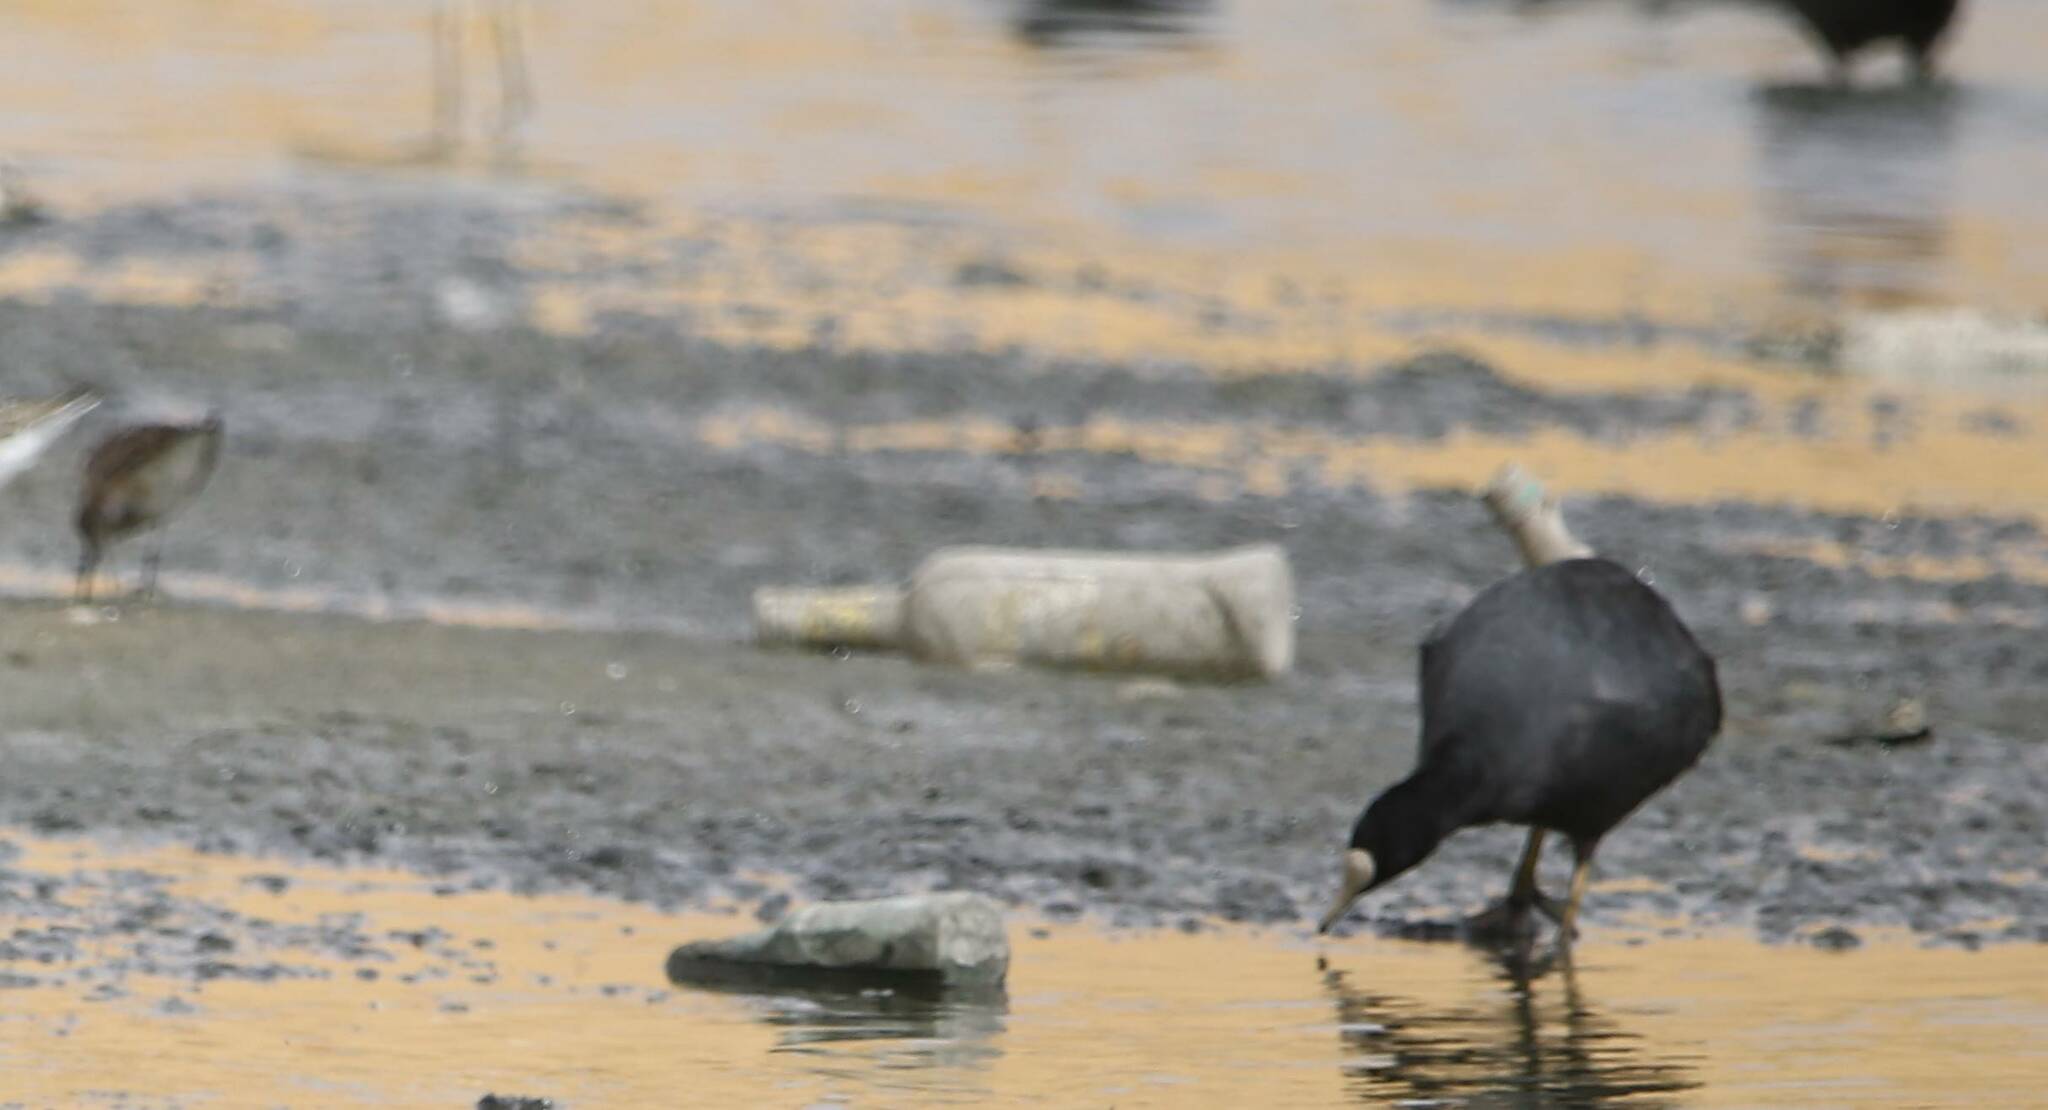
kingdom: Animalia
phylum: Chordata
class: Aves
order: Gruiformes
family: Rallidae
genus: Fulica
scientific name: Fulica atra
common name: Eurasian coot
